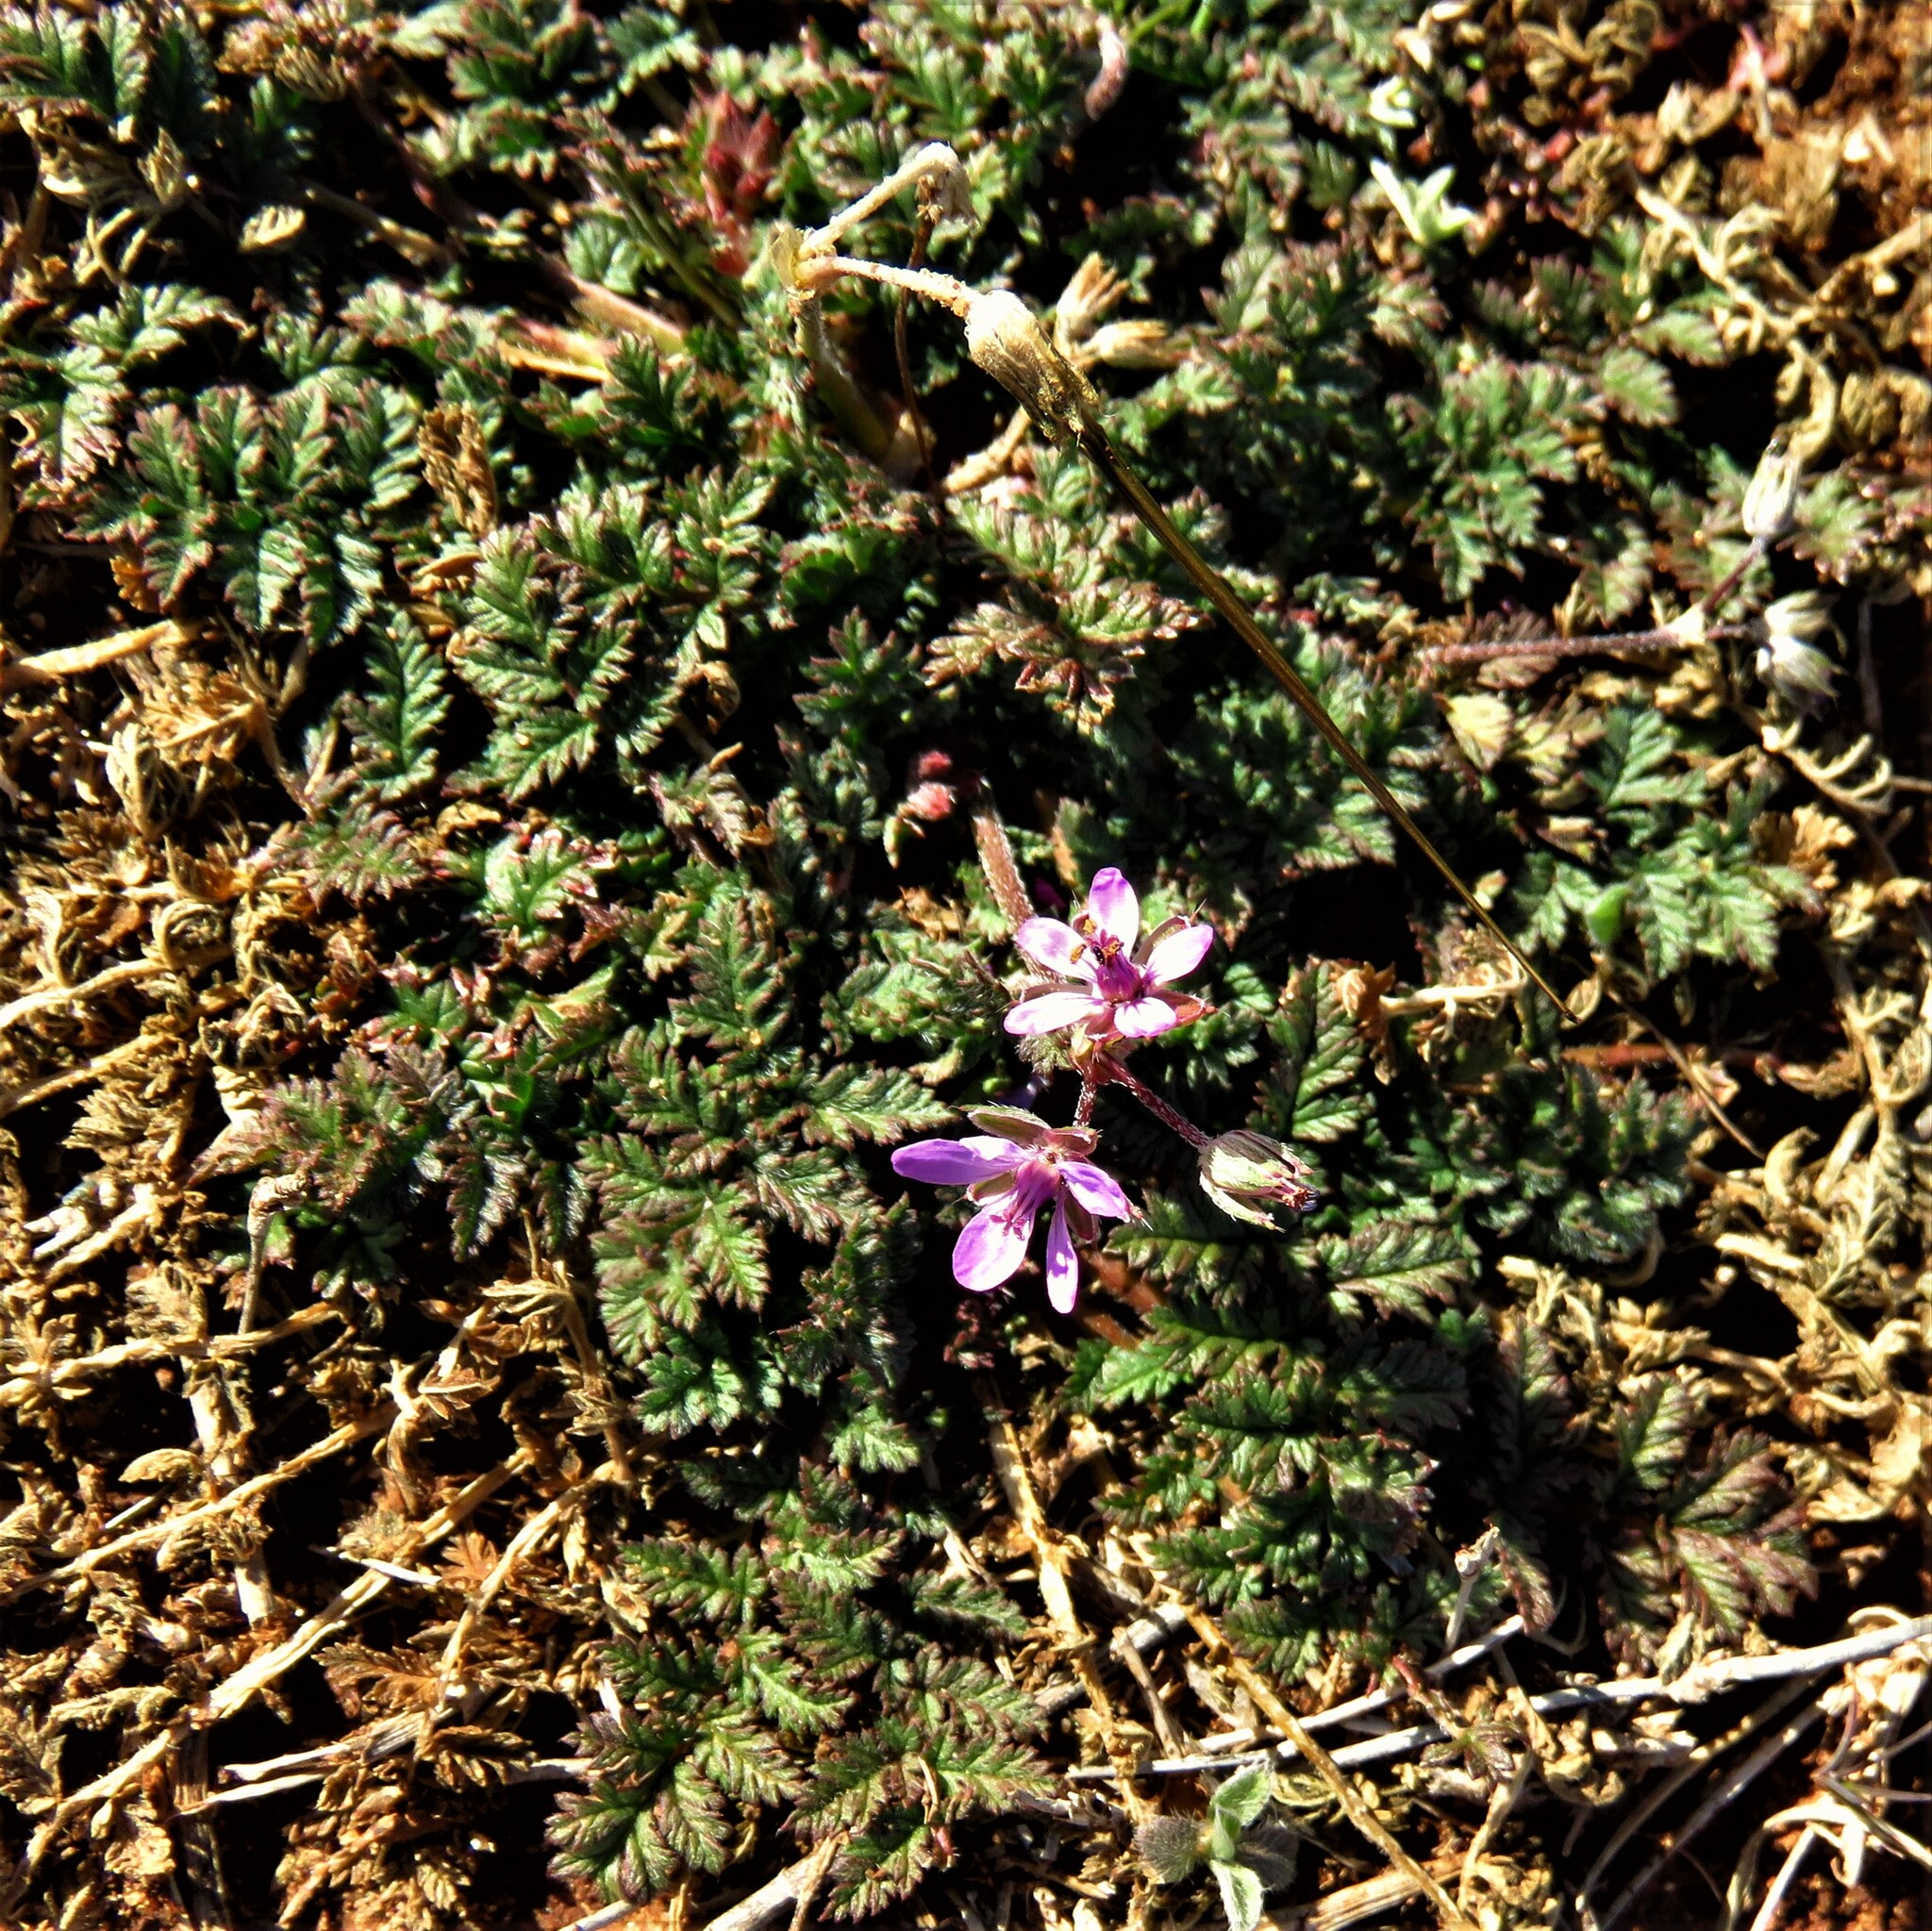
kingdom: Plantae
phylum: Tracheophyta
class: Magnoliopsida
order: Geraniales
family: Geraniaceae
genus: Erodium
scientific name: Erodium cicutarium
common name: Common stork's-bill
